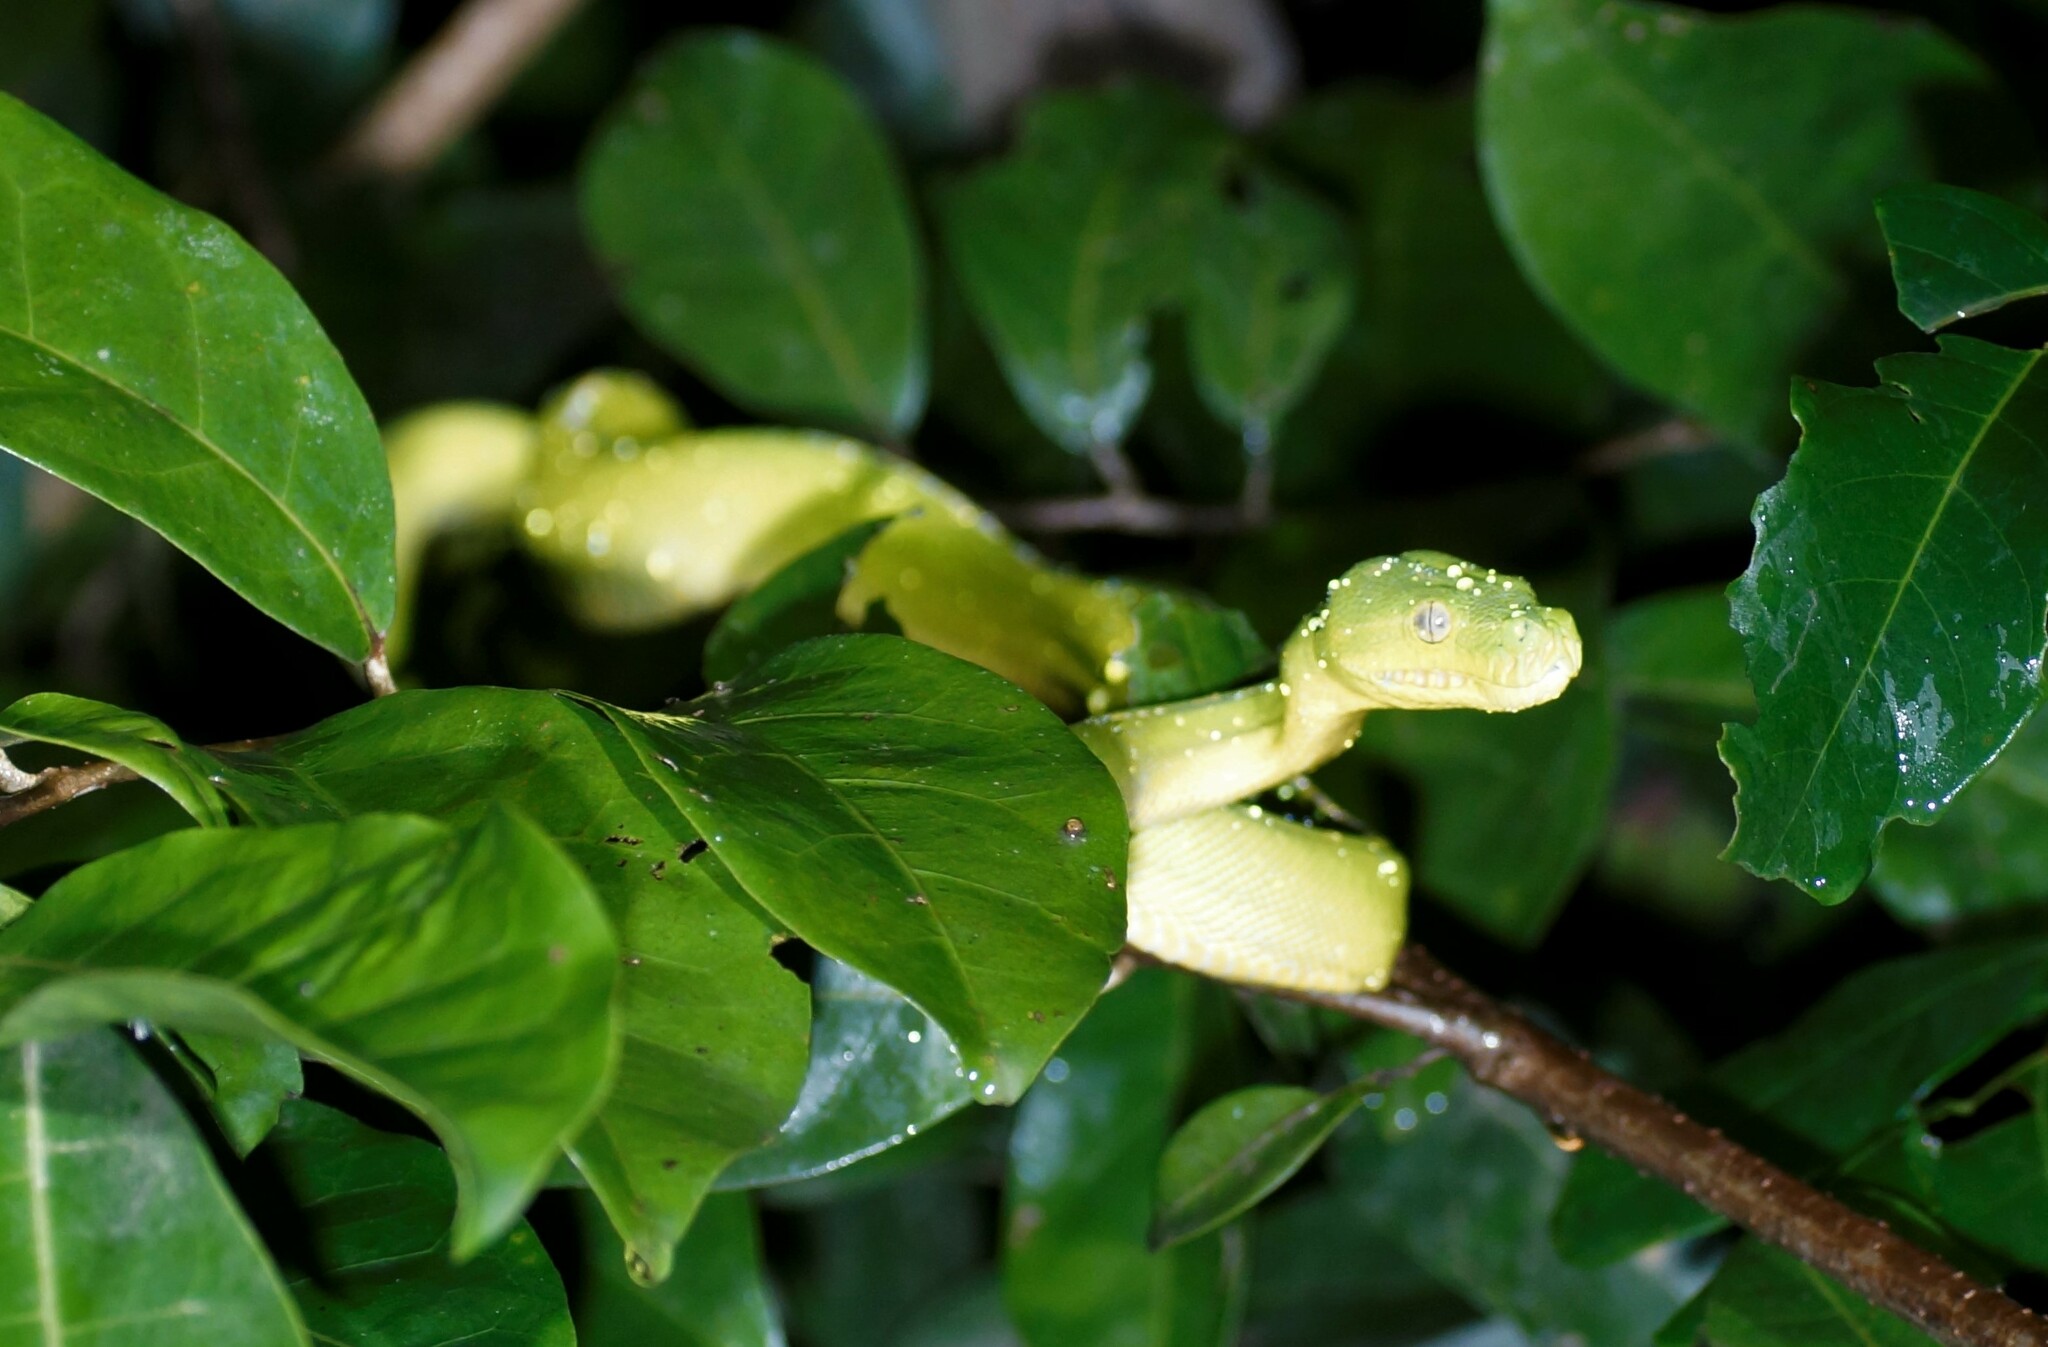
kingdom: Animalia
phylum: Chordata
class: Squamata
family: Pythonidae
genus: Morelia
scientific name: Morelia viridis
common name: Green tree python
